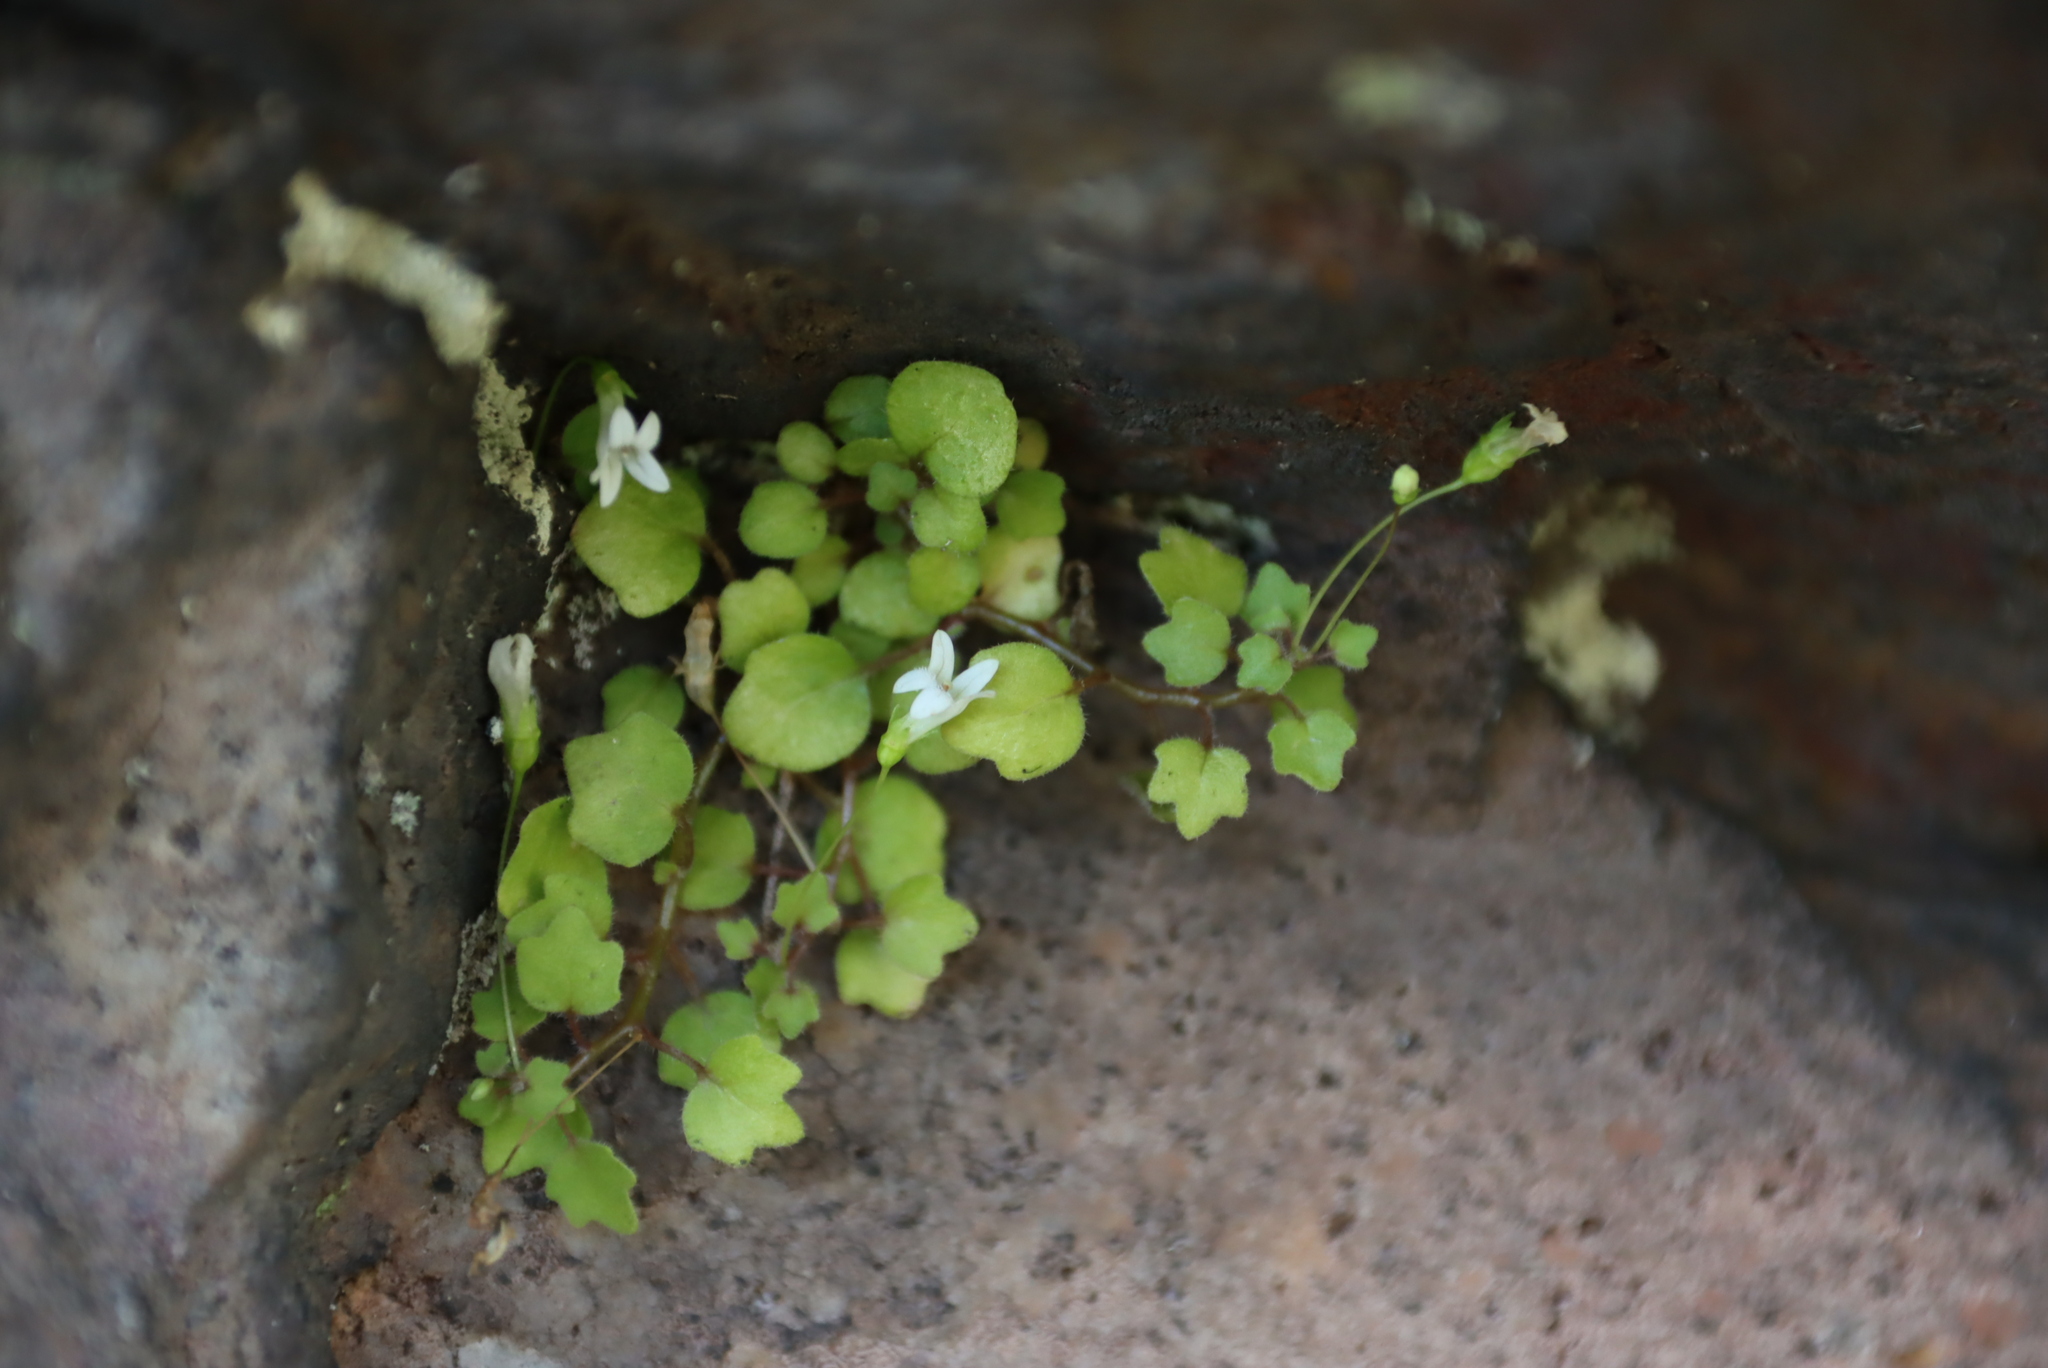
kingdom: Plantae
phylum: Tracheophyta
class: Magnoliopsida
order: Asterales
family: Campanulaceae
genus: Wimmerella
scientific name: Wimmerella pygmaea
